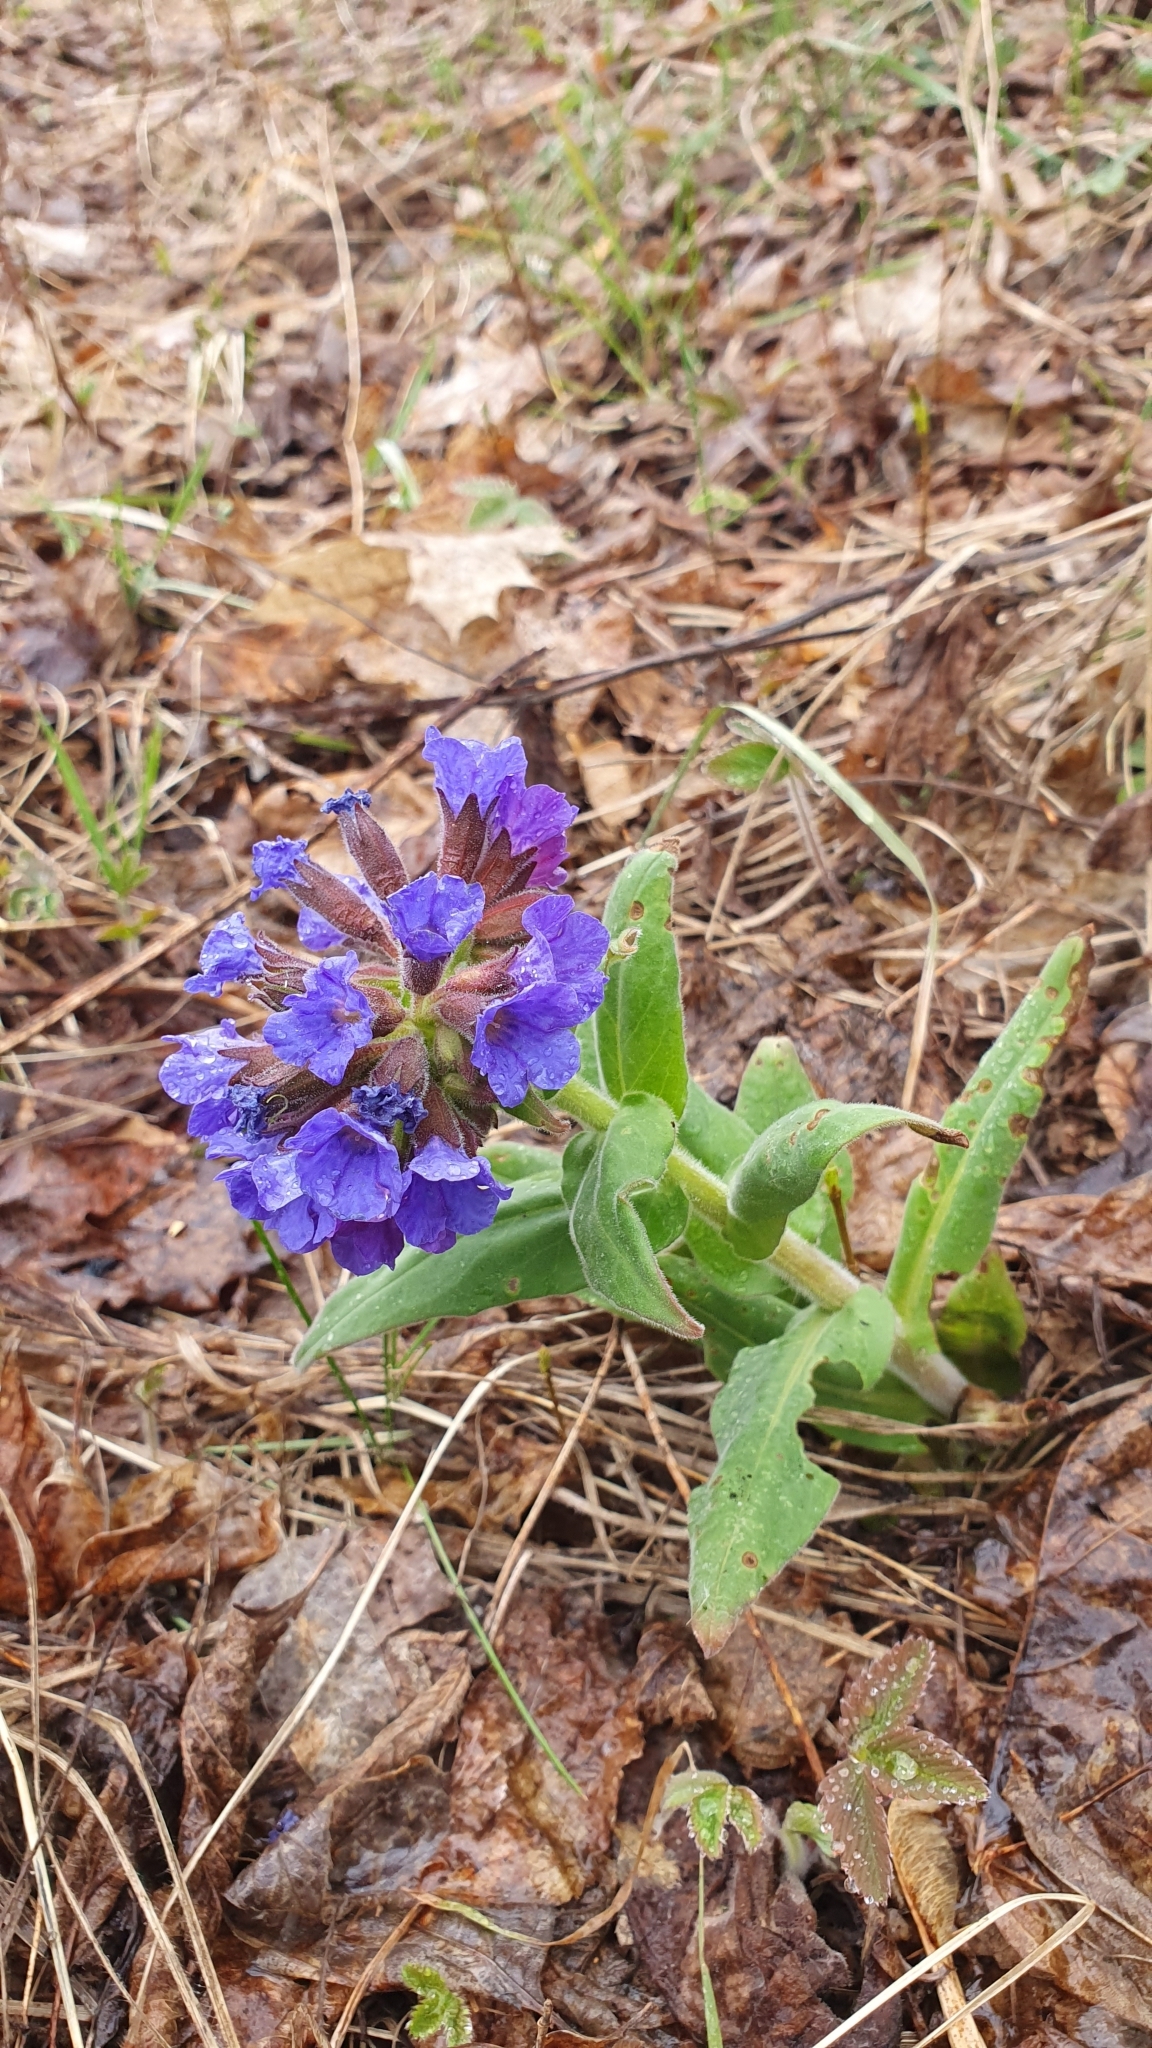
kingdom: Plantae
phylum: Tracheophyta
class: Magnoliopsida
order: Boraginales
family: Boraginaceae
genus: Pulmonaria
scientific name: Pulmonaria mollis
